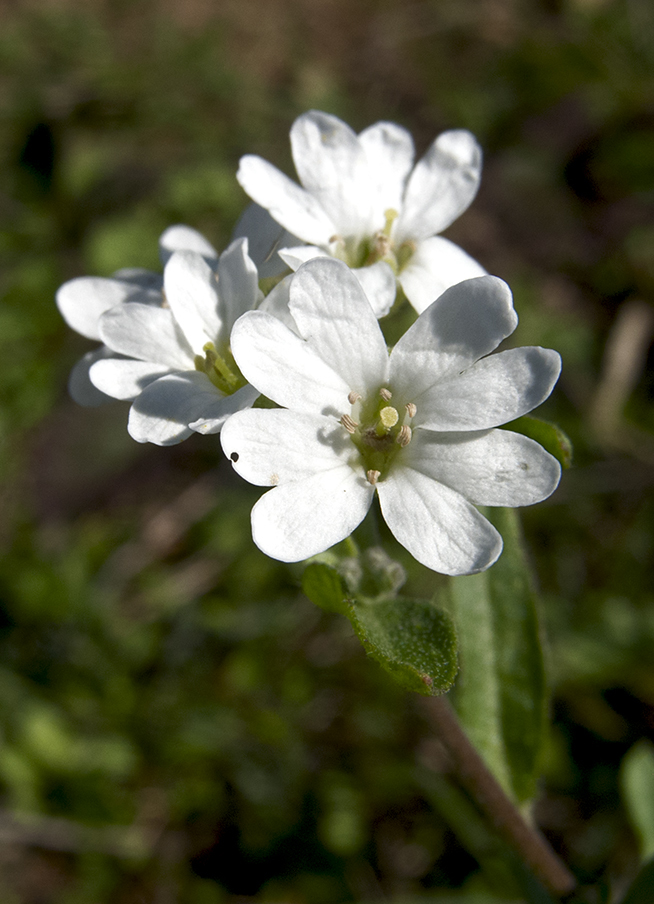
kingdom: Plantae
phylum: Tracheophyta
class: Magnoliopsida
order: Brassicales
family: Brassicaceae
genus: Berteroa
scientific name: Berteroa incana
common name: Hoary alison
